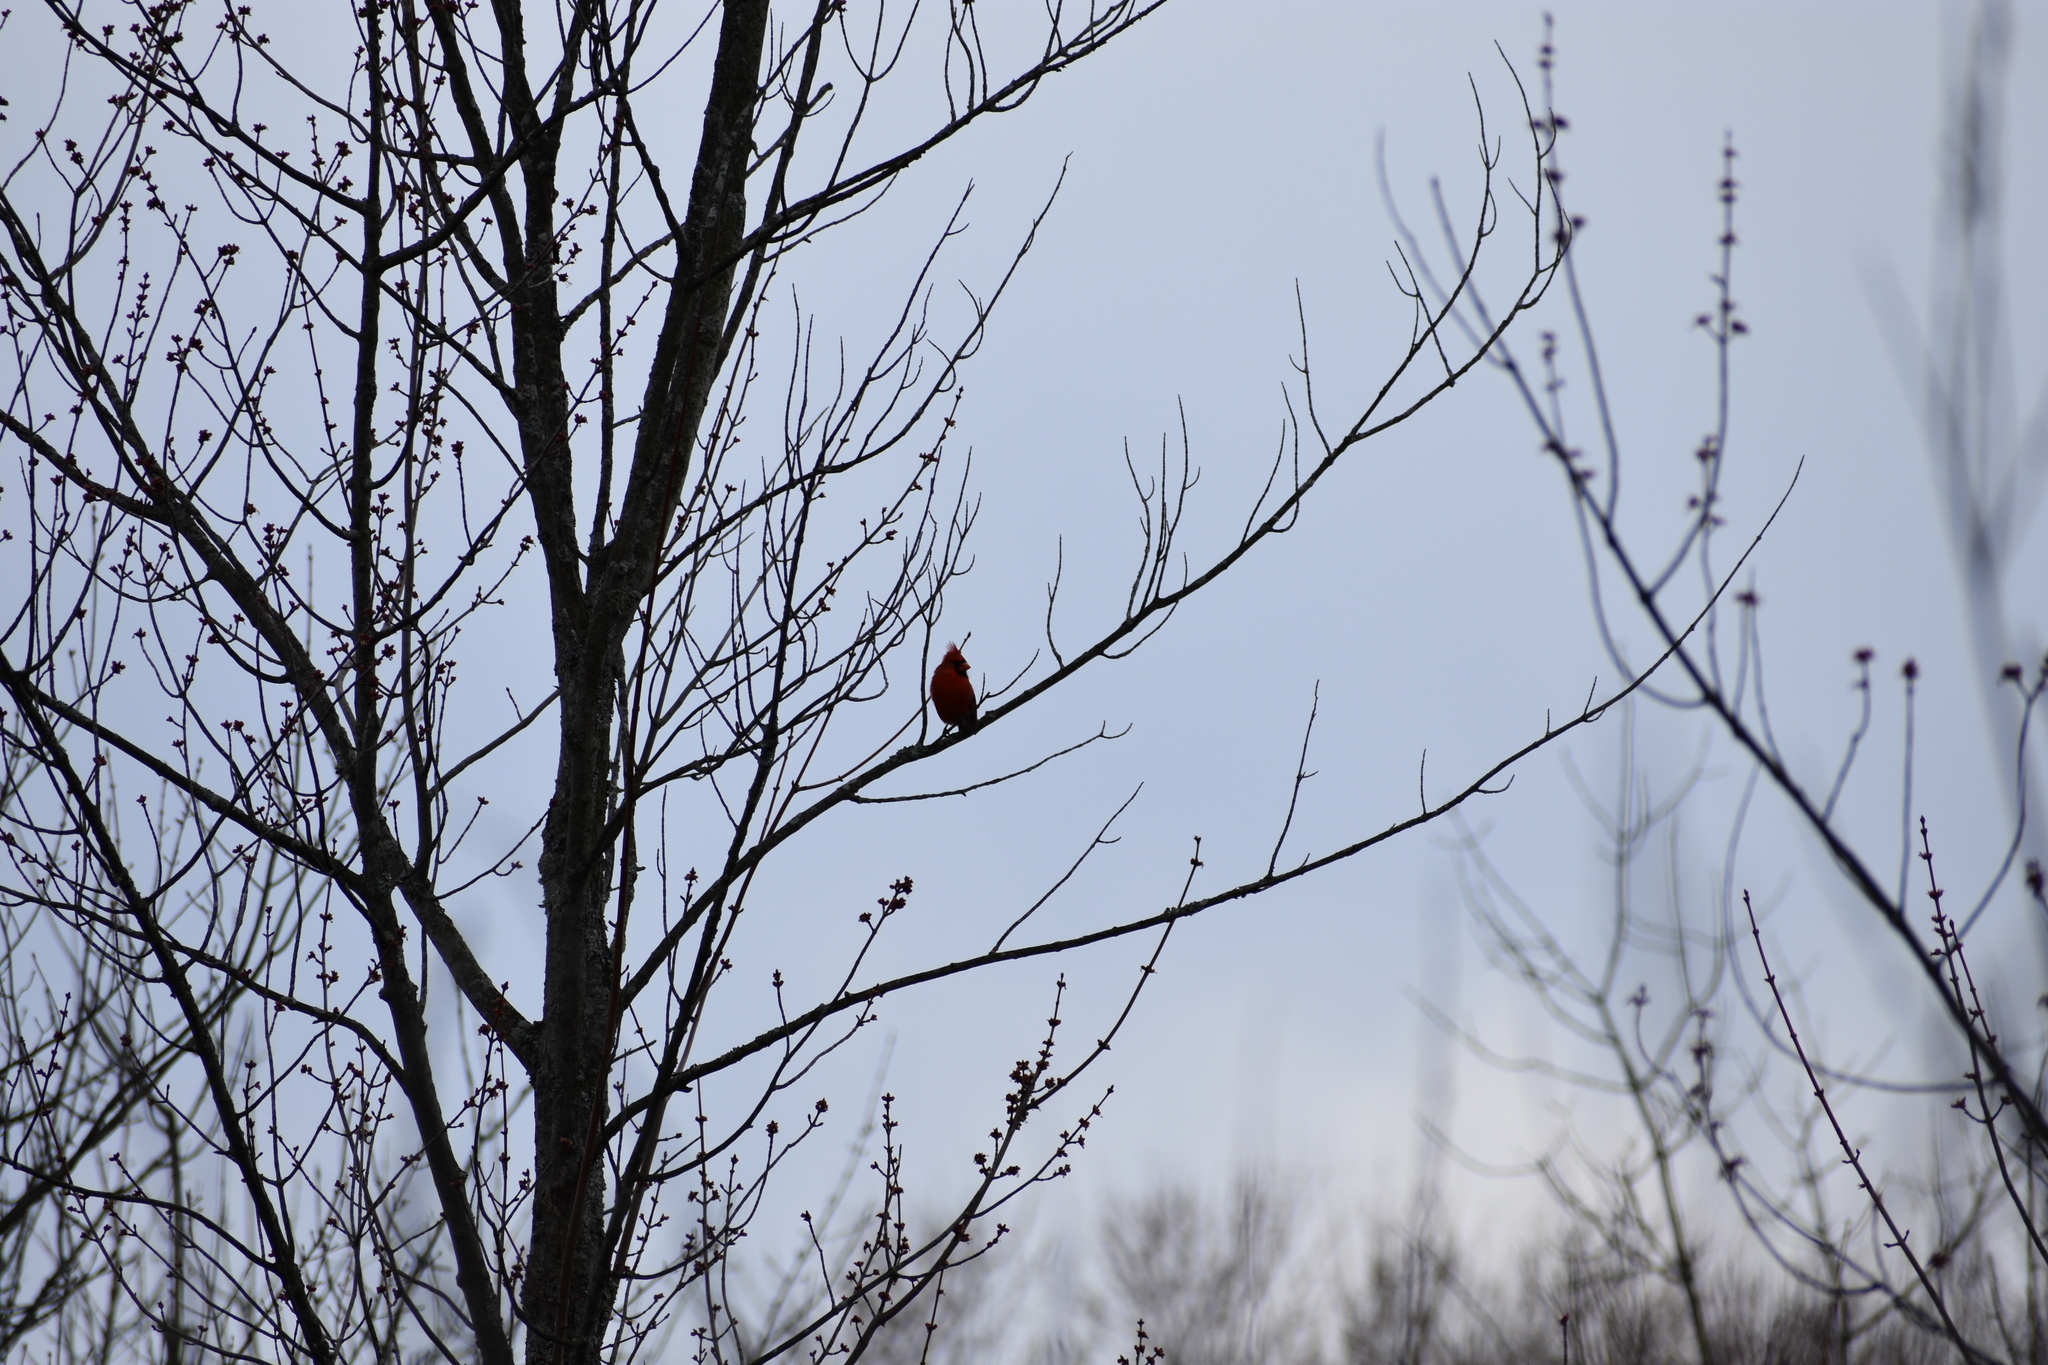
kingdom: Animalia
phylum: Chordata
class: Aves
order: Passeriformes
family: Cardinalidae
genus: Cardinalis
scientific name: Cardinalis cardinalis
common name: Northern cardinal
